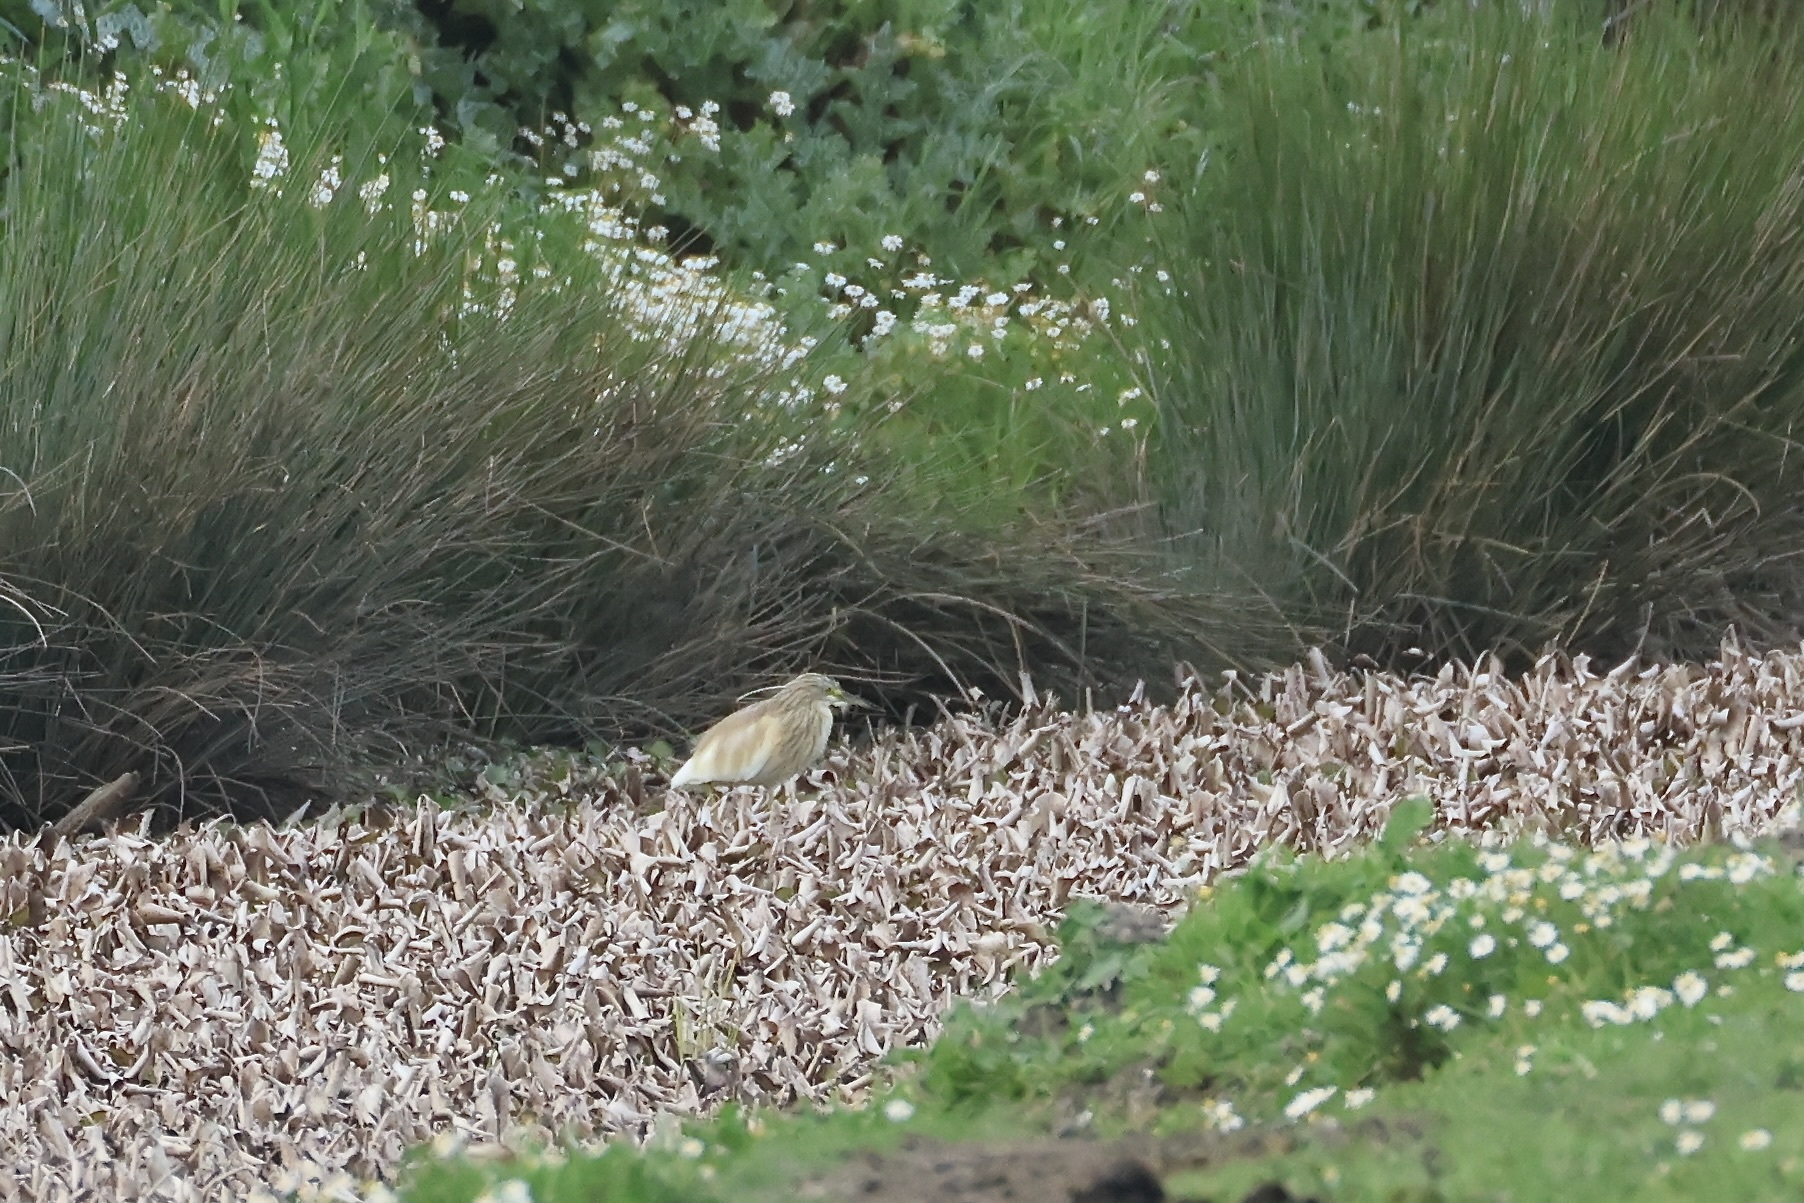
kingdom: Animalia
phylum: Chordata
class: Aves
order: Pelecaniformes
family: Ardeidae
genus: Ardeola
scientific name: Ardeola ralloides
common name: Squacco heron
